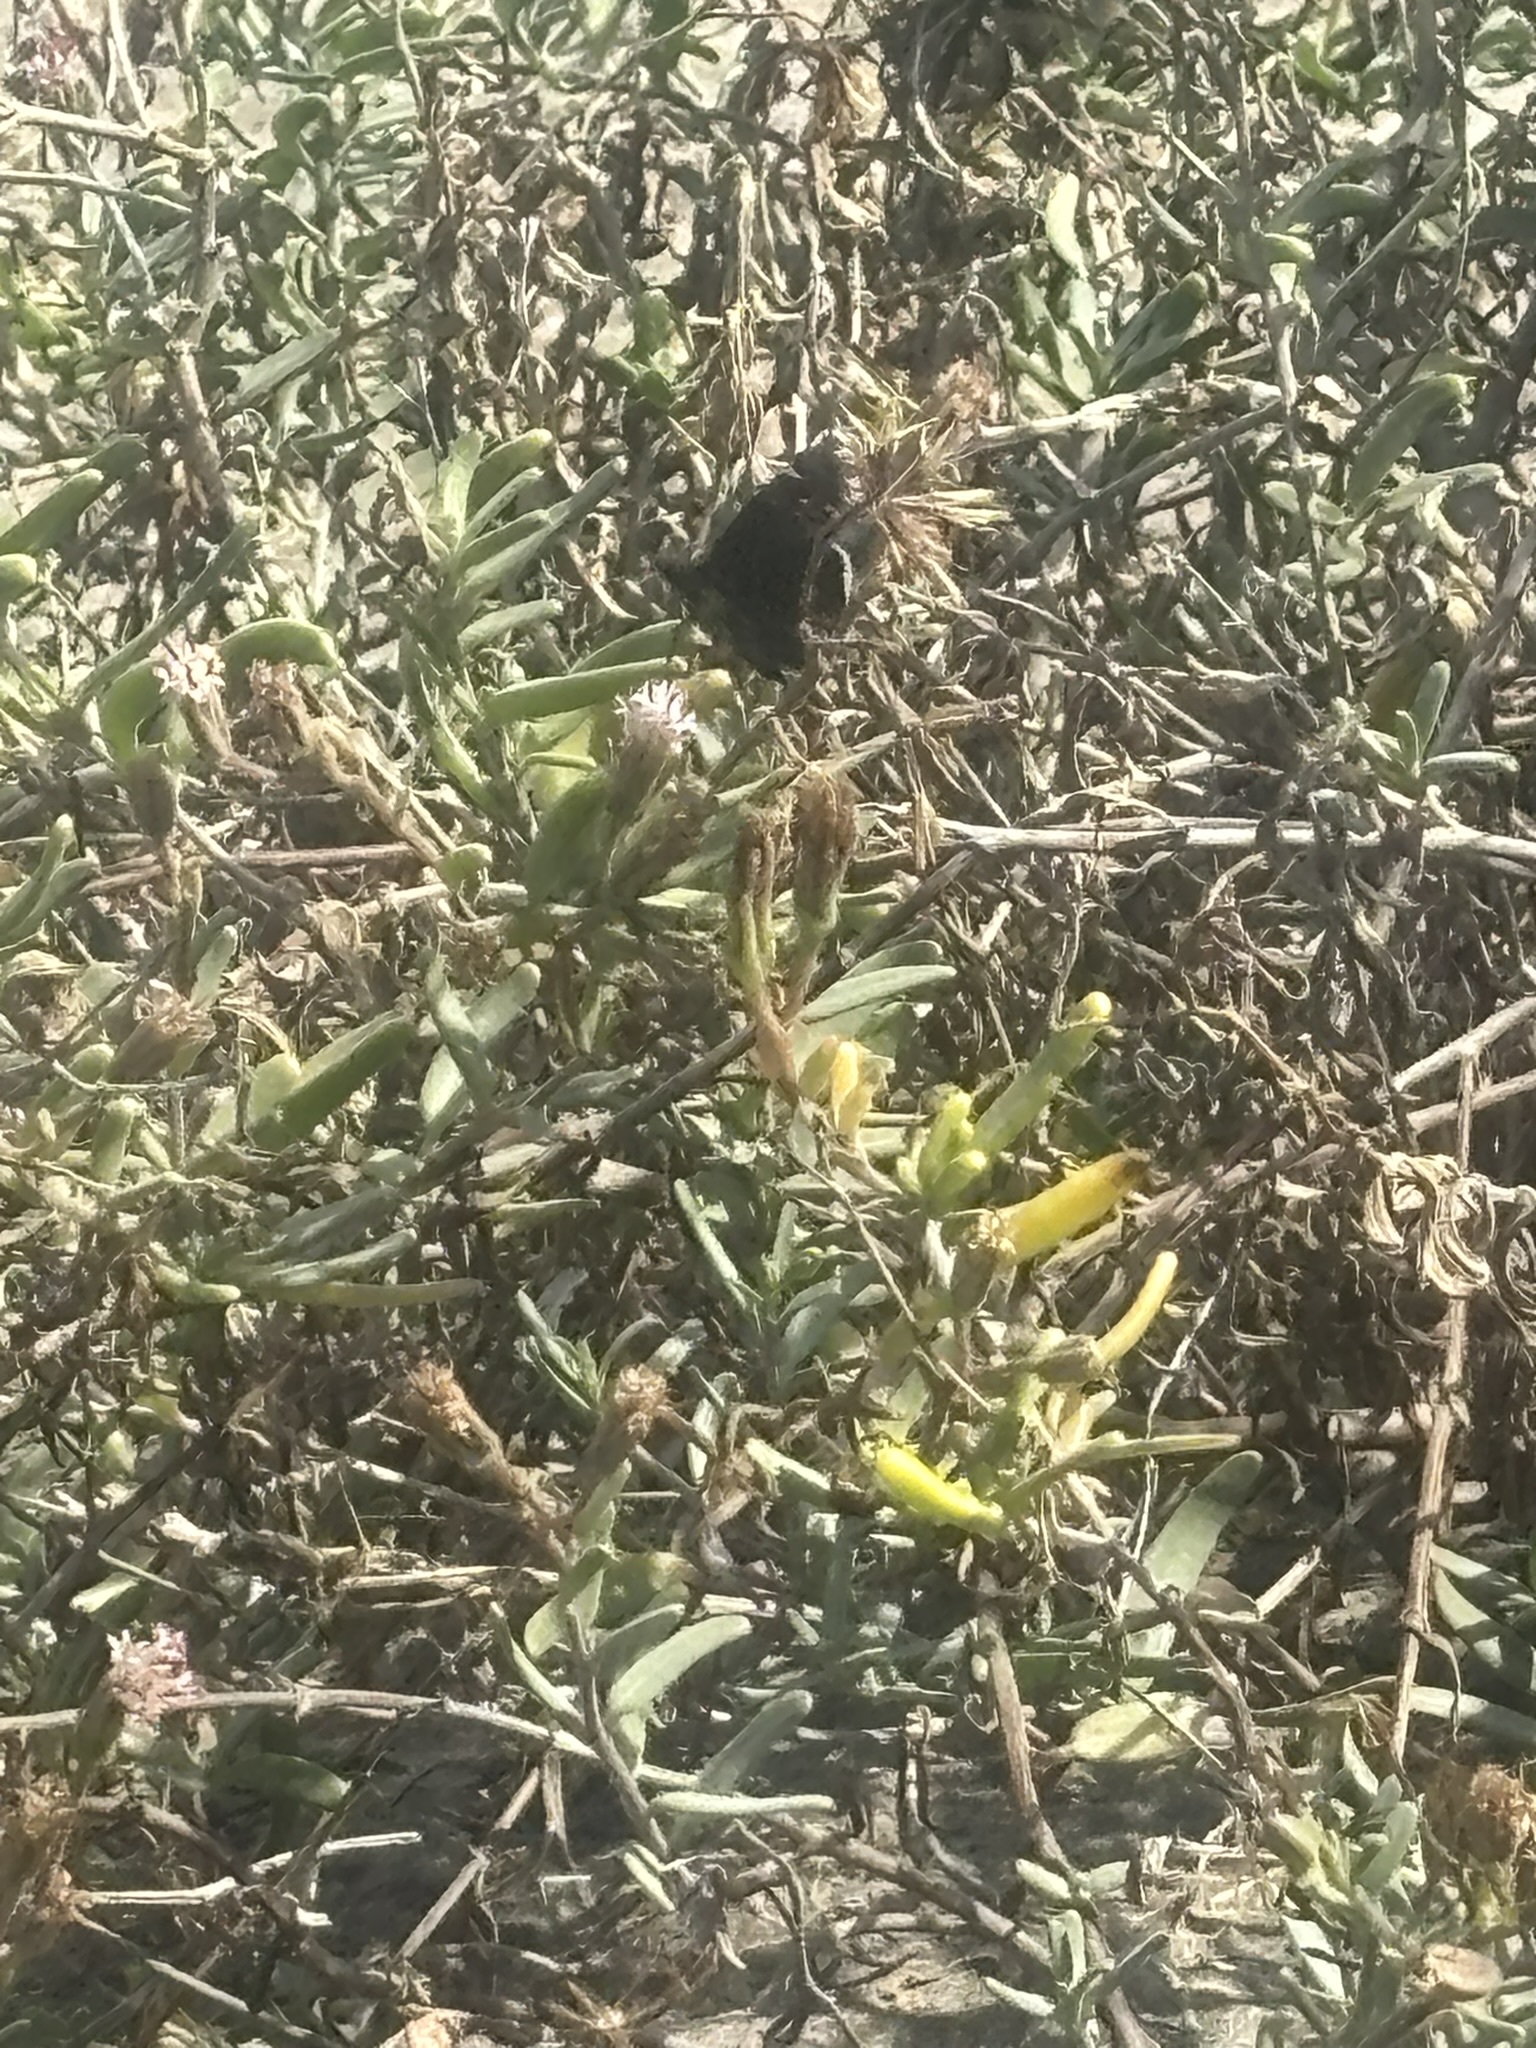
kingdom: Animalia
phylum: Arthropoda
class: Insecta
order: Lepidoptera
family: Hesperiidae
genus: Erynnis
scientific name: Erynnis funeralis
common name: Funereal duskywing
